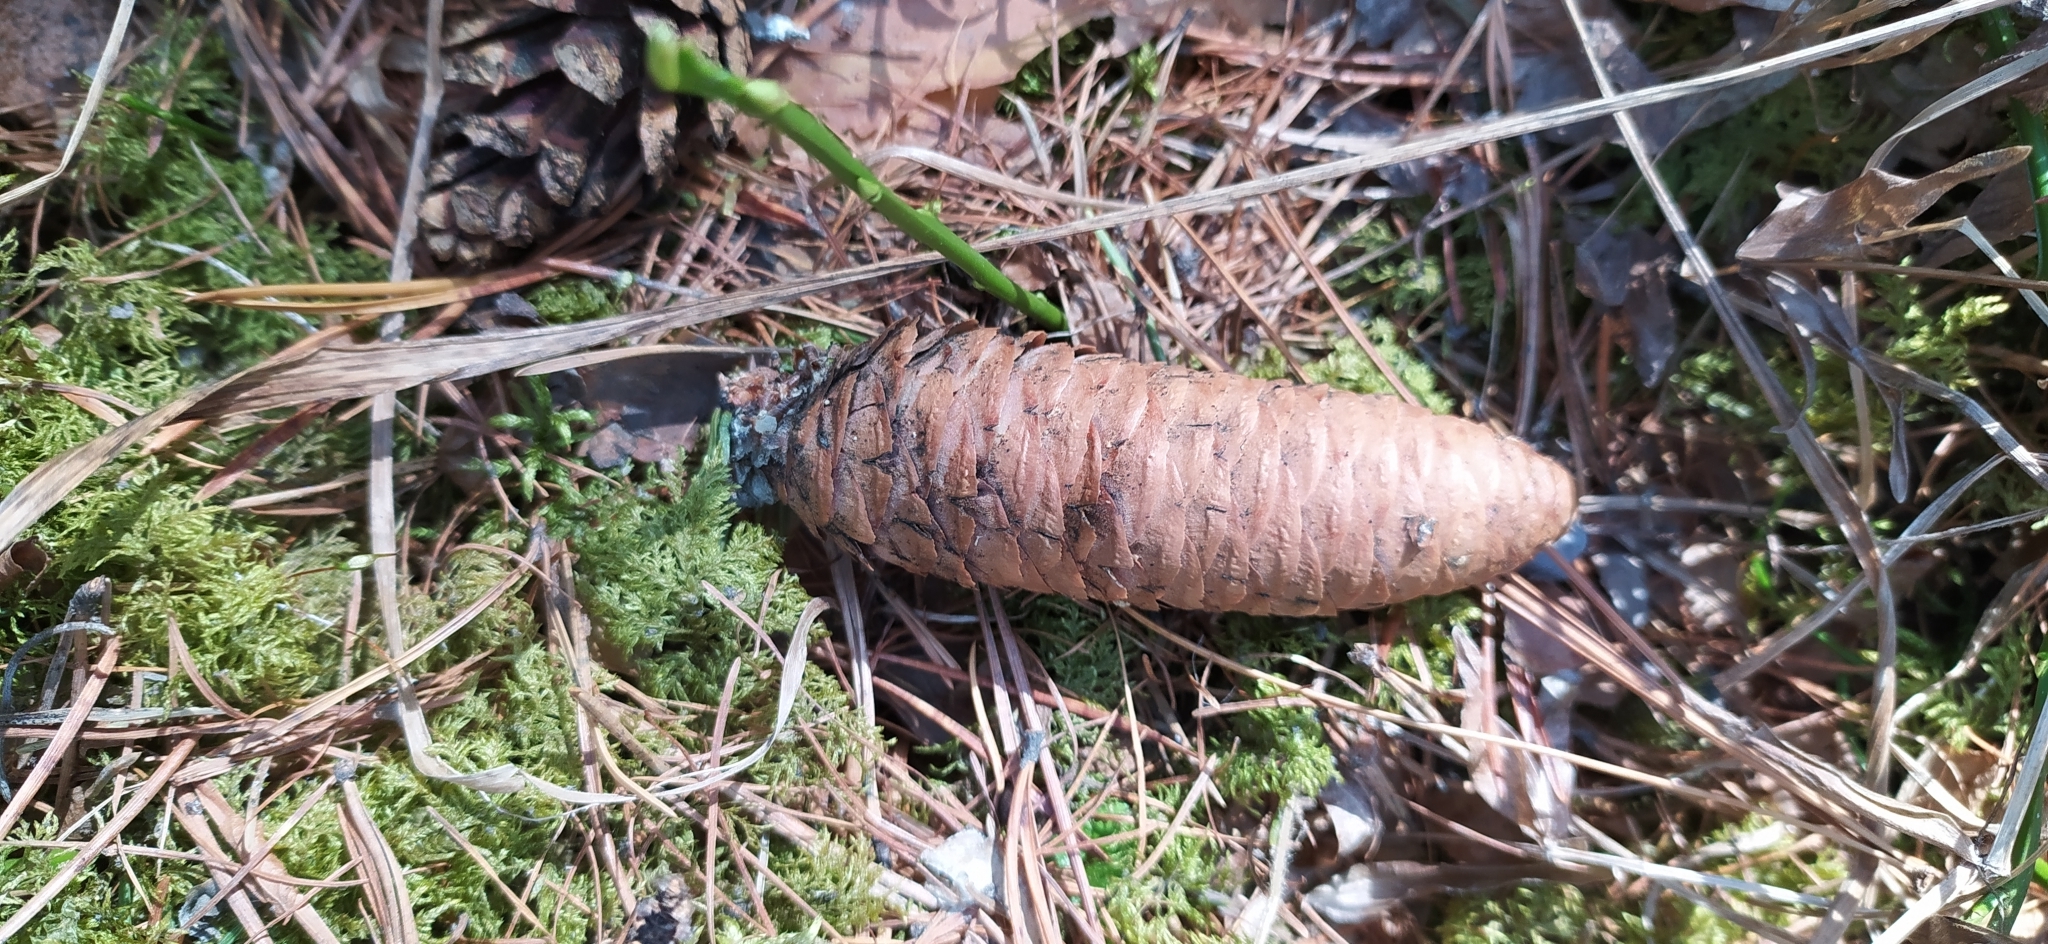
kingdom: Plantae
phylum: Tracheophyta
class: Pinopsida
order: Pinales
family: Pinaceae
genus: Picea
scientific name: Picea obovata
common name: Siberian spruce
